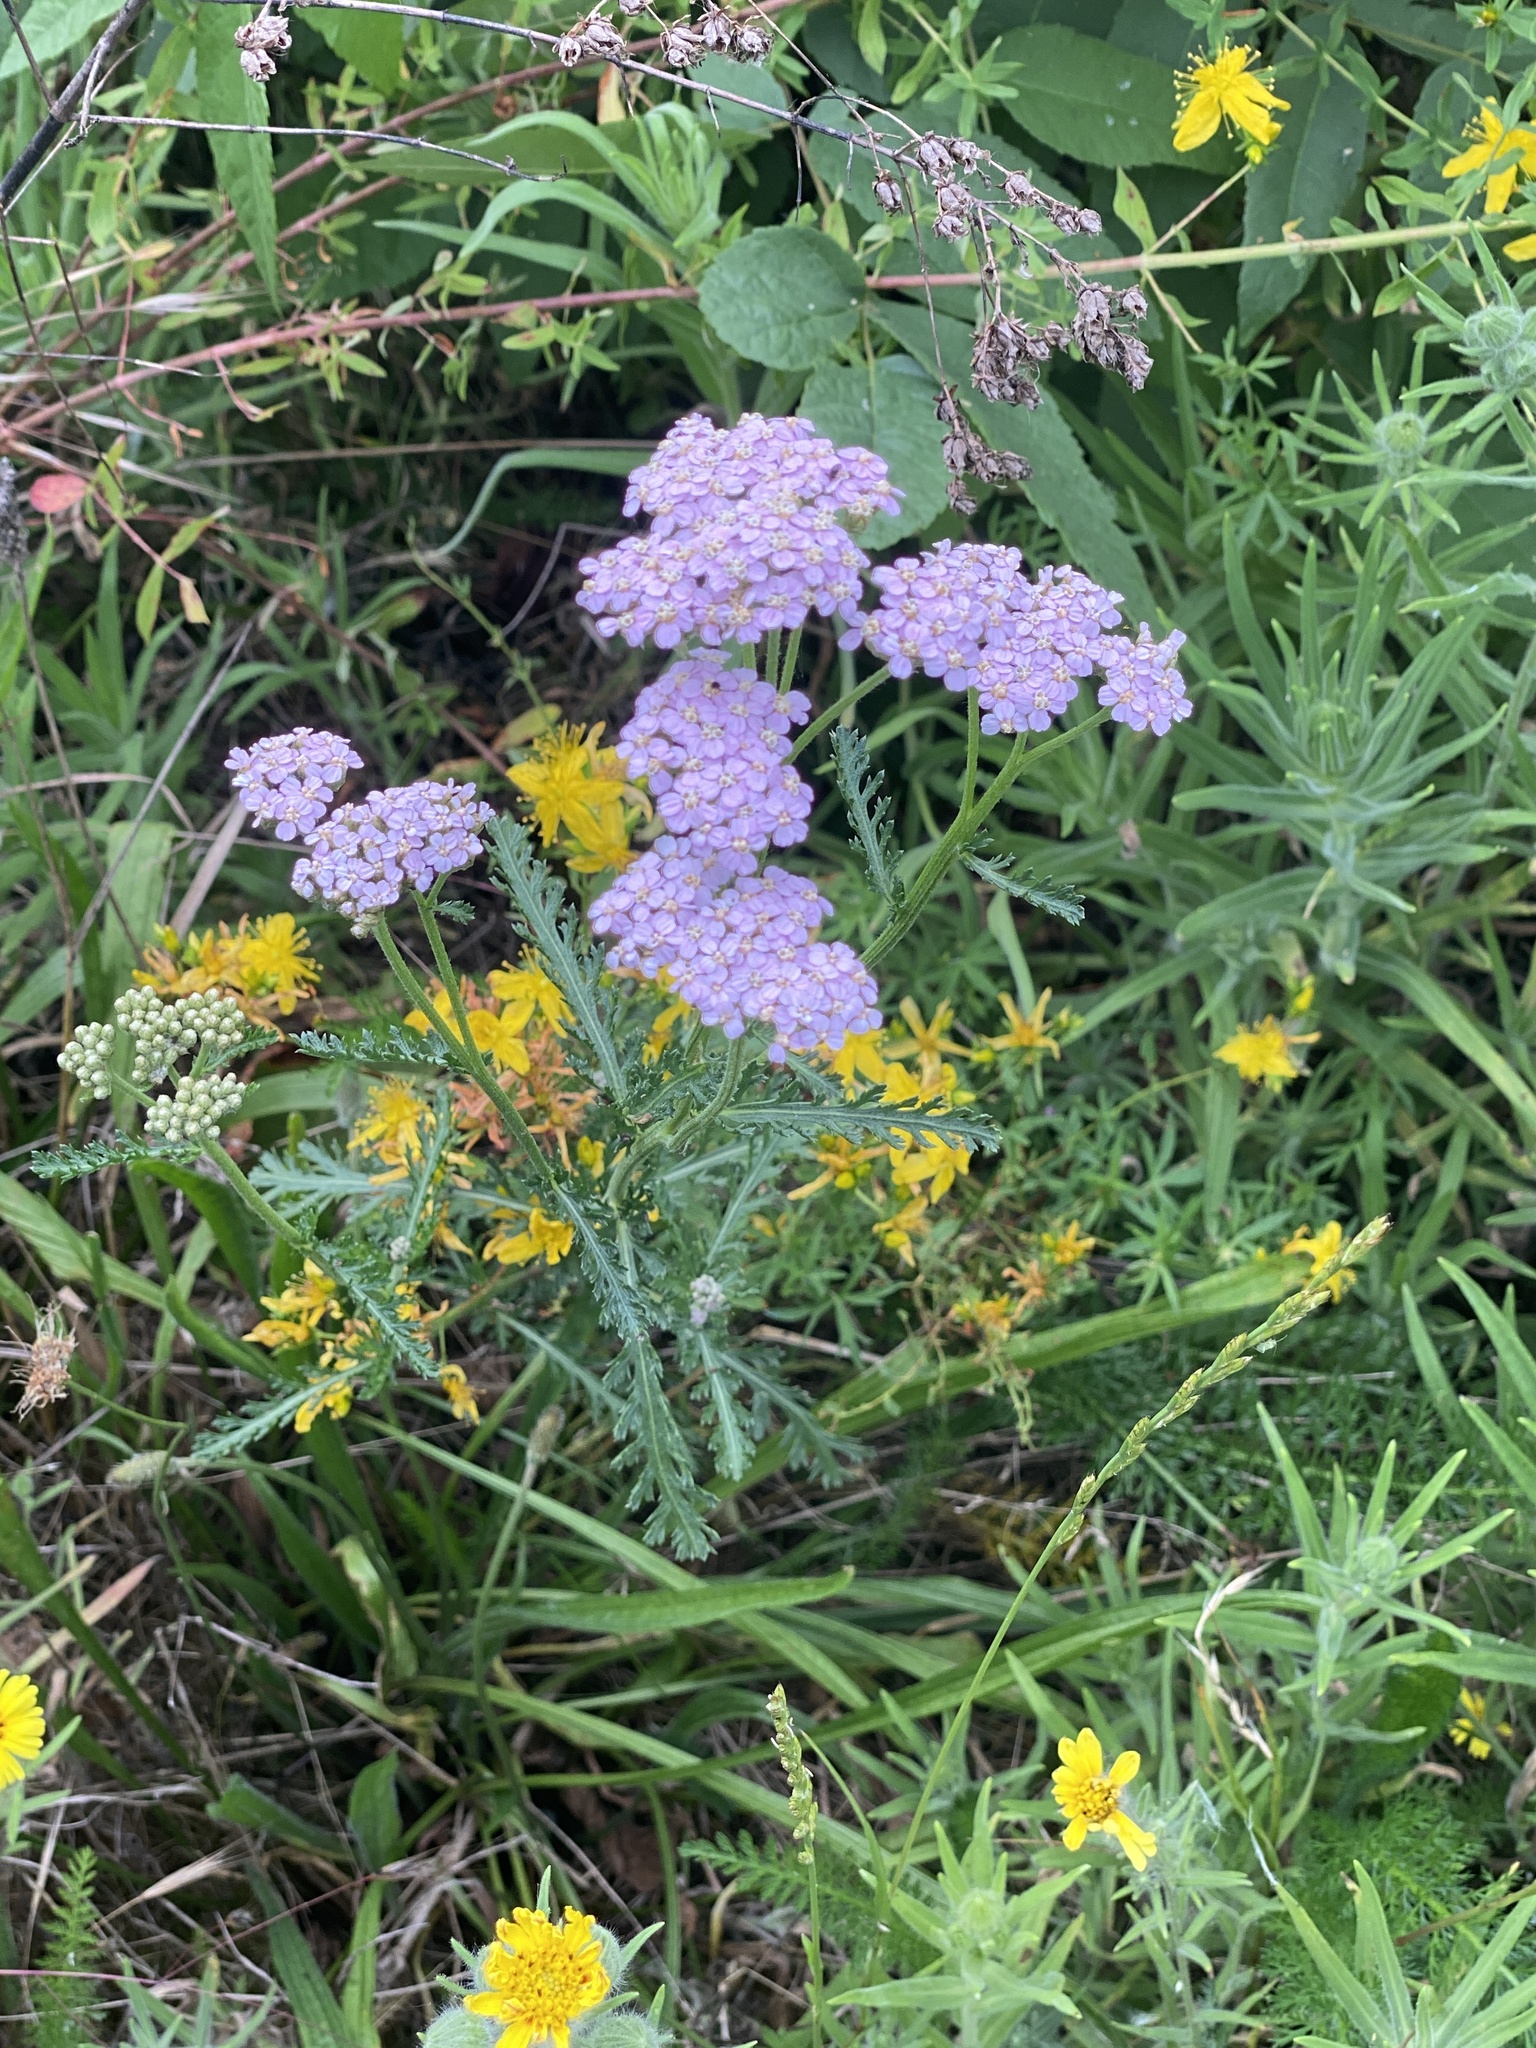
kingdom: Plantae
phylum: Tracheophyta
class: Magnoliopsida
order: Asterales
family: Asteraceae
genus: Achillea
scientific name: Achillea millefolium
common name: Yarrow
